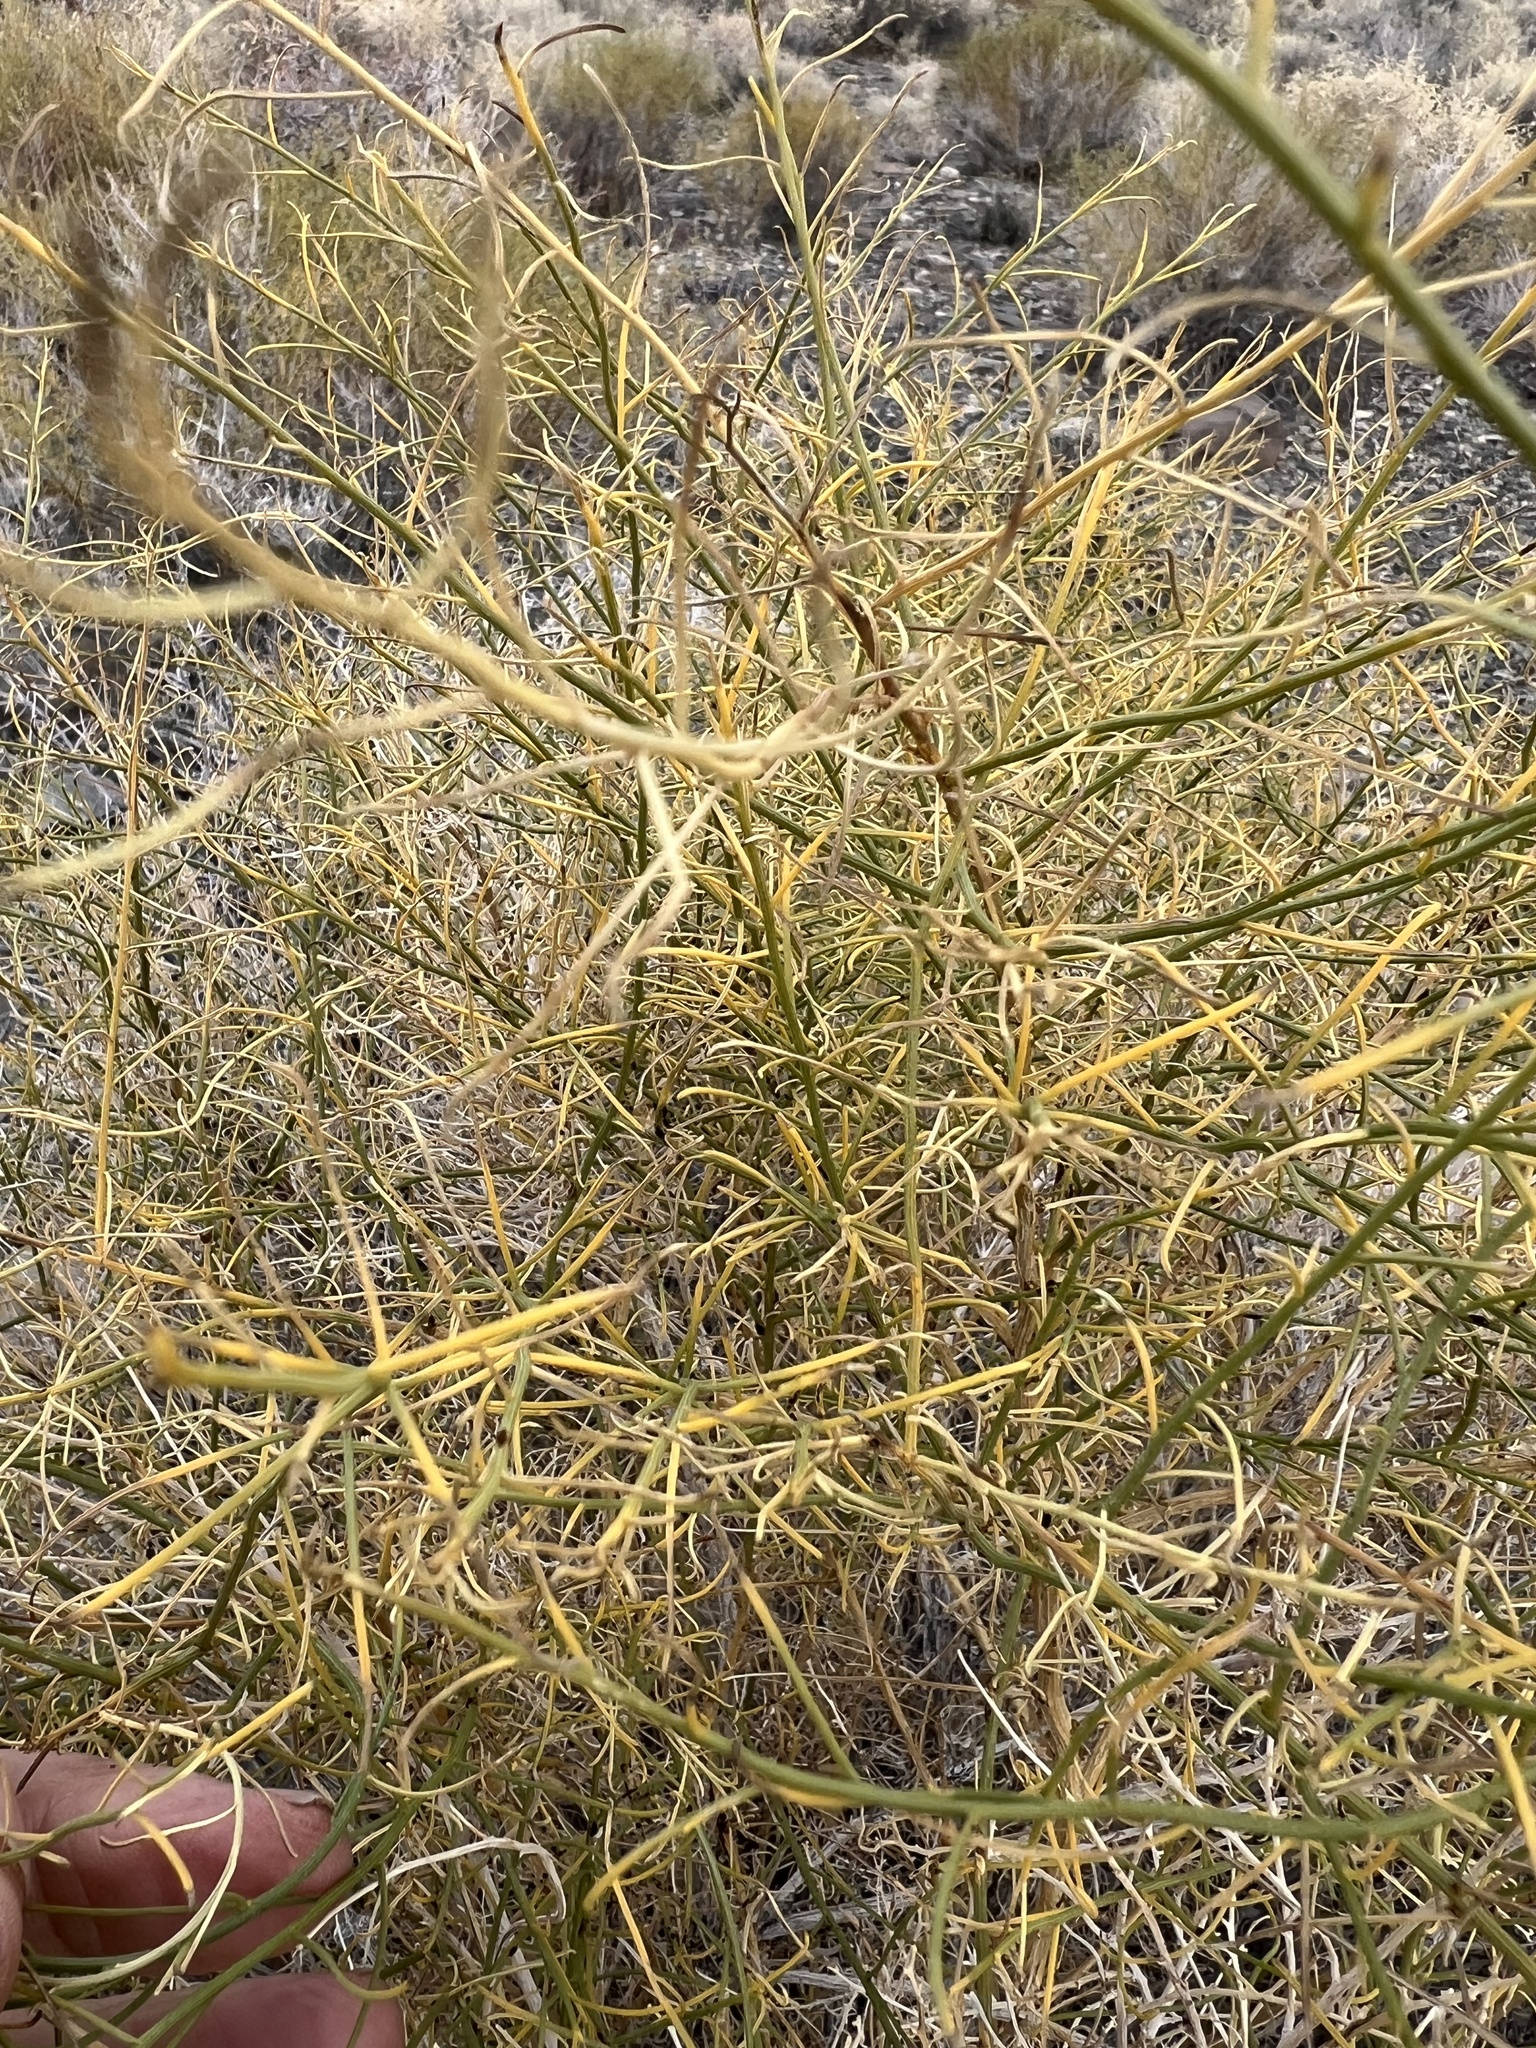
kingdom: Plantae
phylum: Tracheophyta
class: Magnoliopsida
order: Asterales
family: Asteraceae
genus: Ambrosia
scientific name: Ambrosia salsola
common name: Burrobrush
